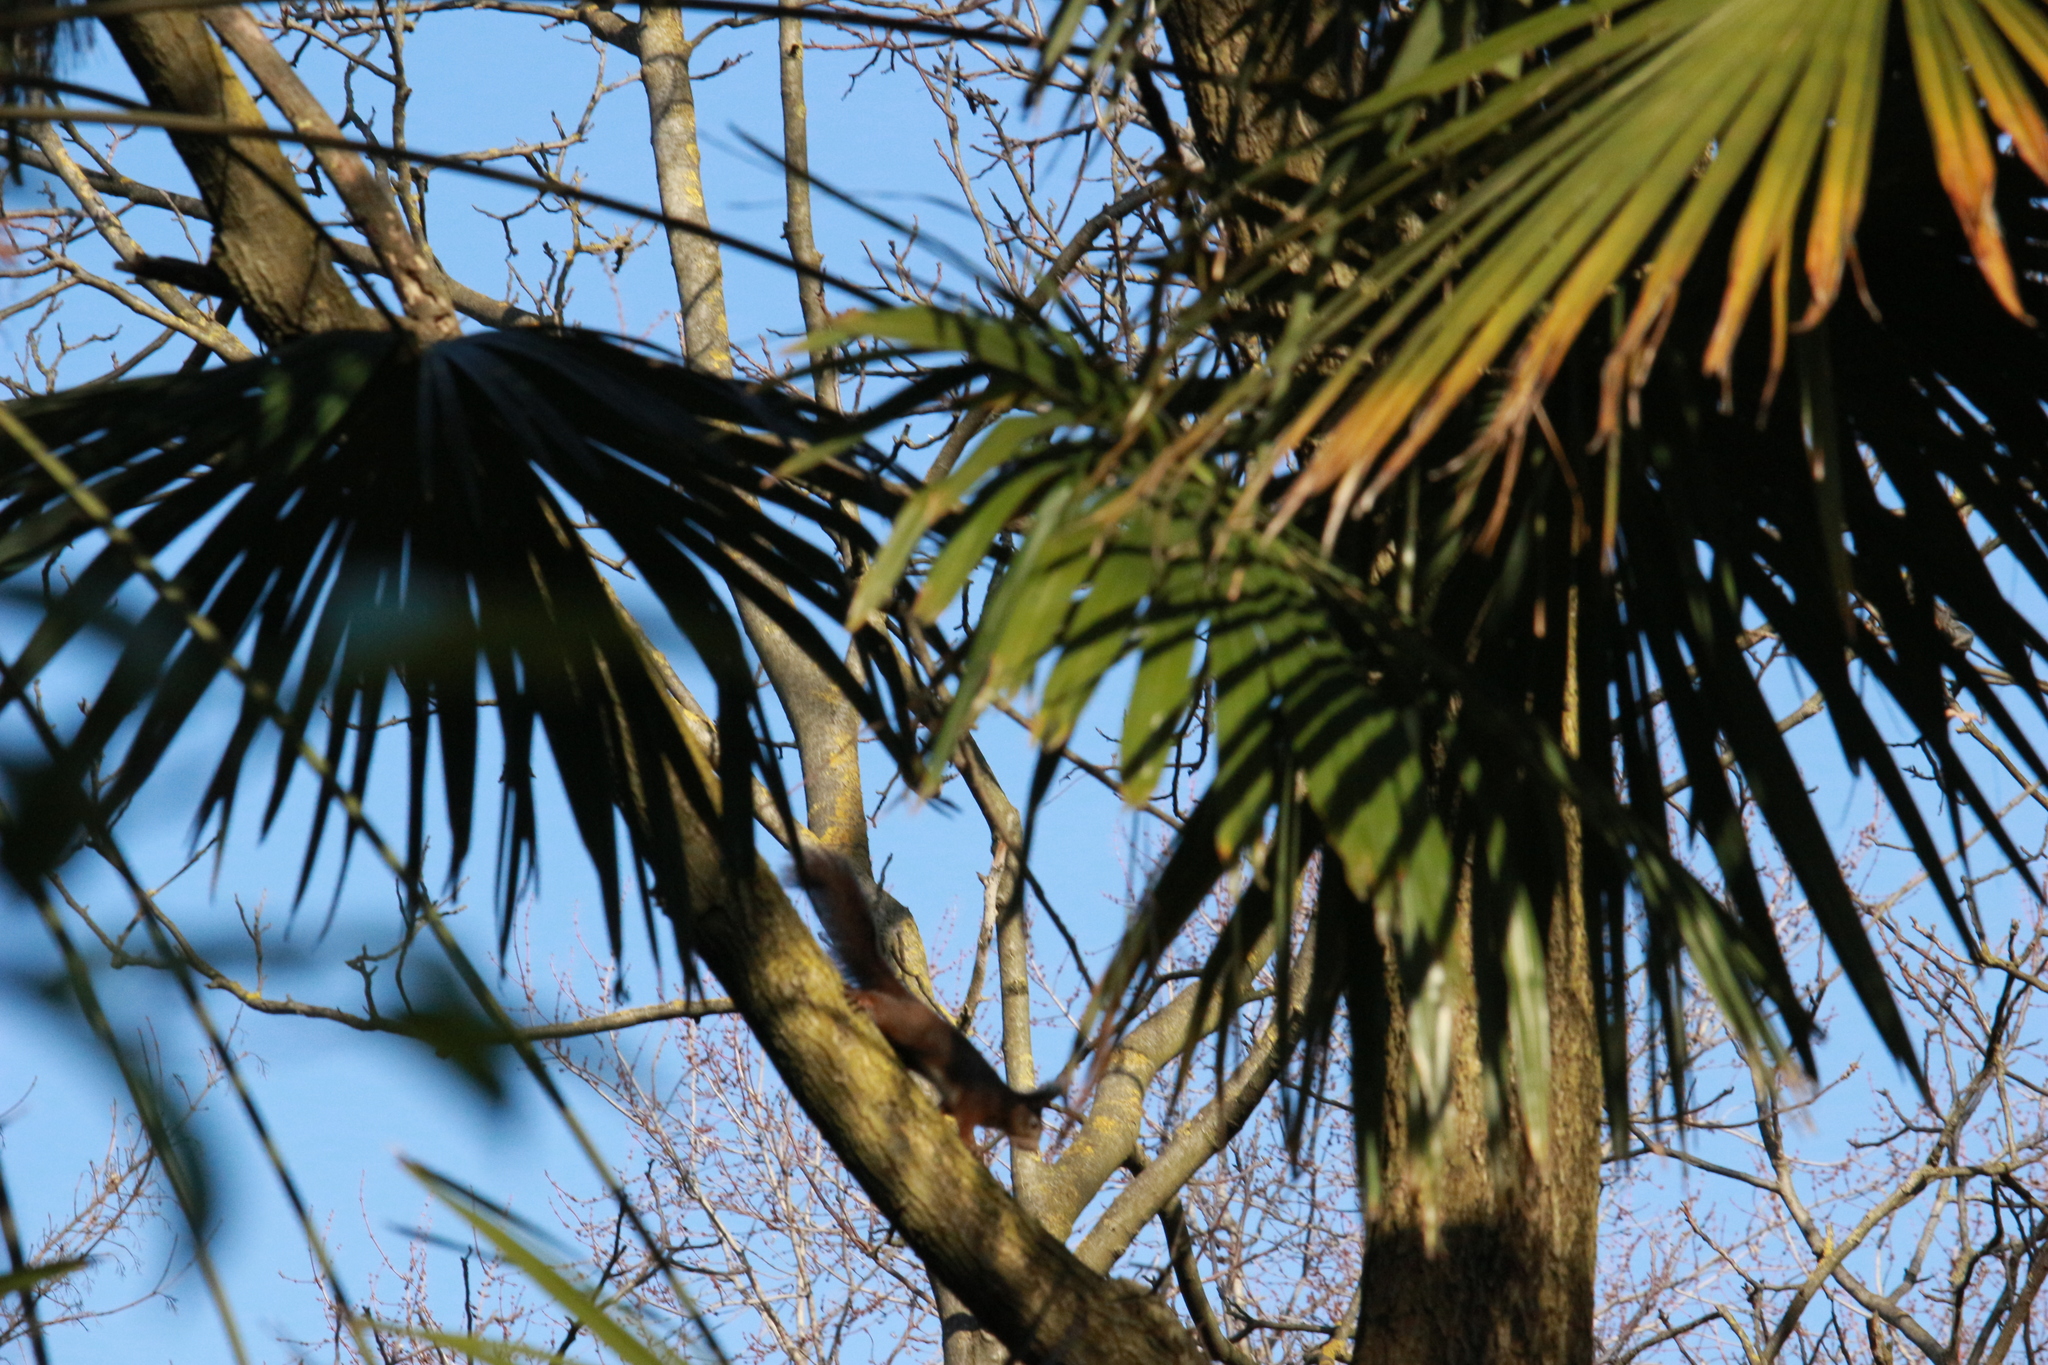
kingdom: Animalia
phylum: Chordata
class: Mammalia
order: Rodentia
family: Sciuridae
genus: Sciurus
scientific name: Sciurus vulgaris
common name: Eurasian red squirrel
